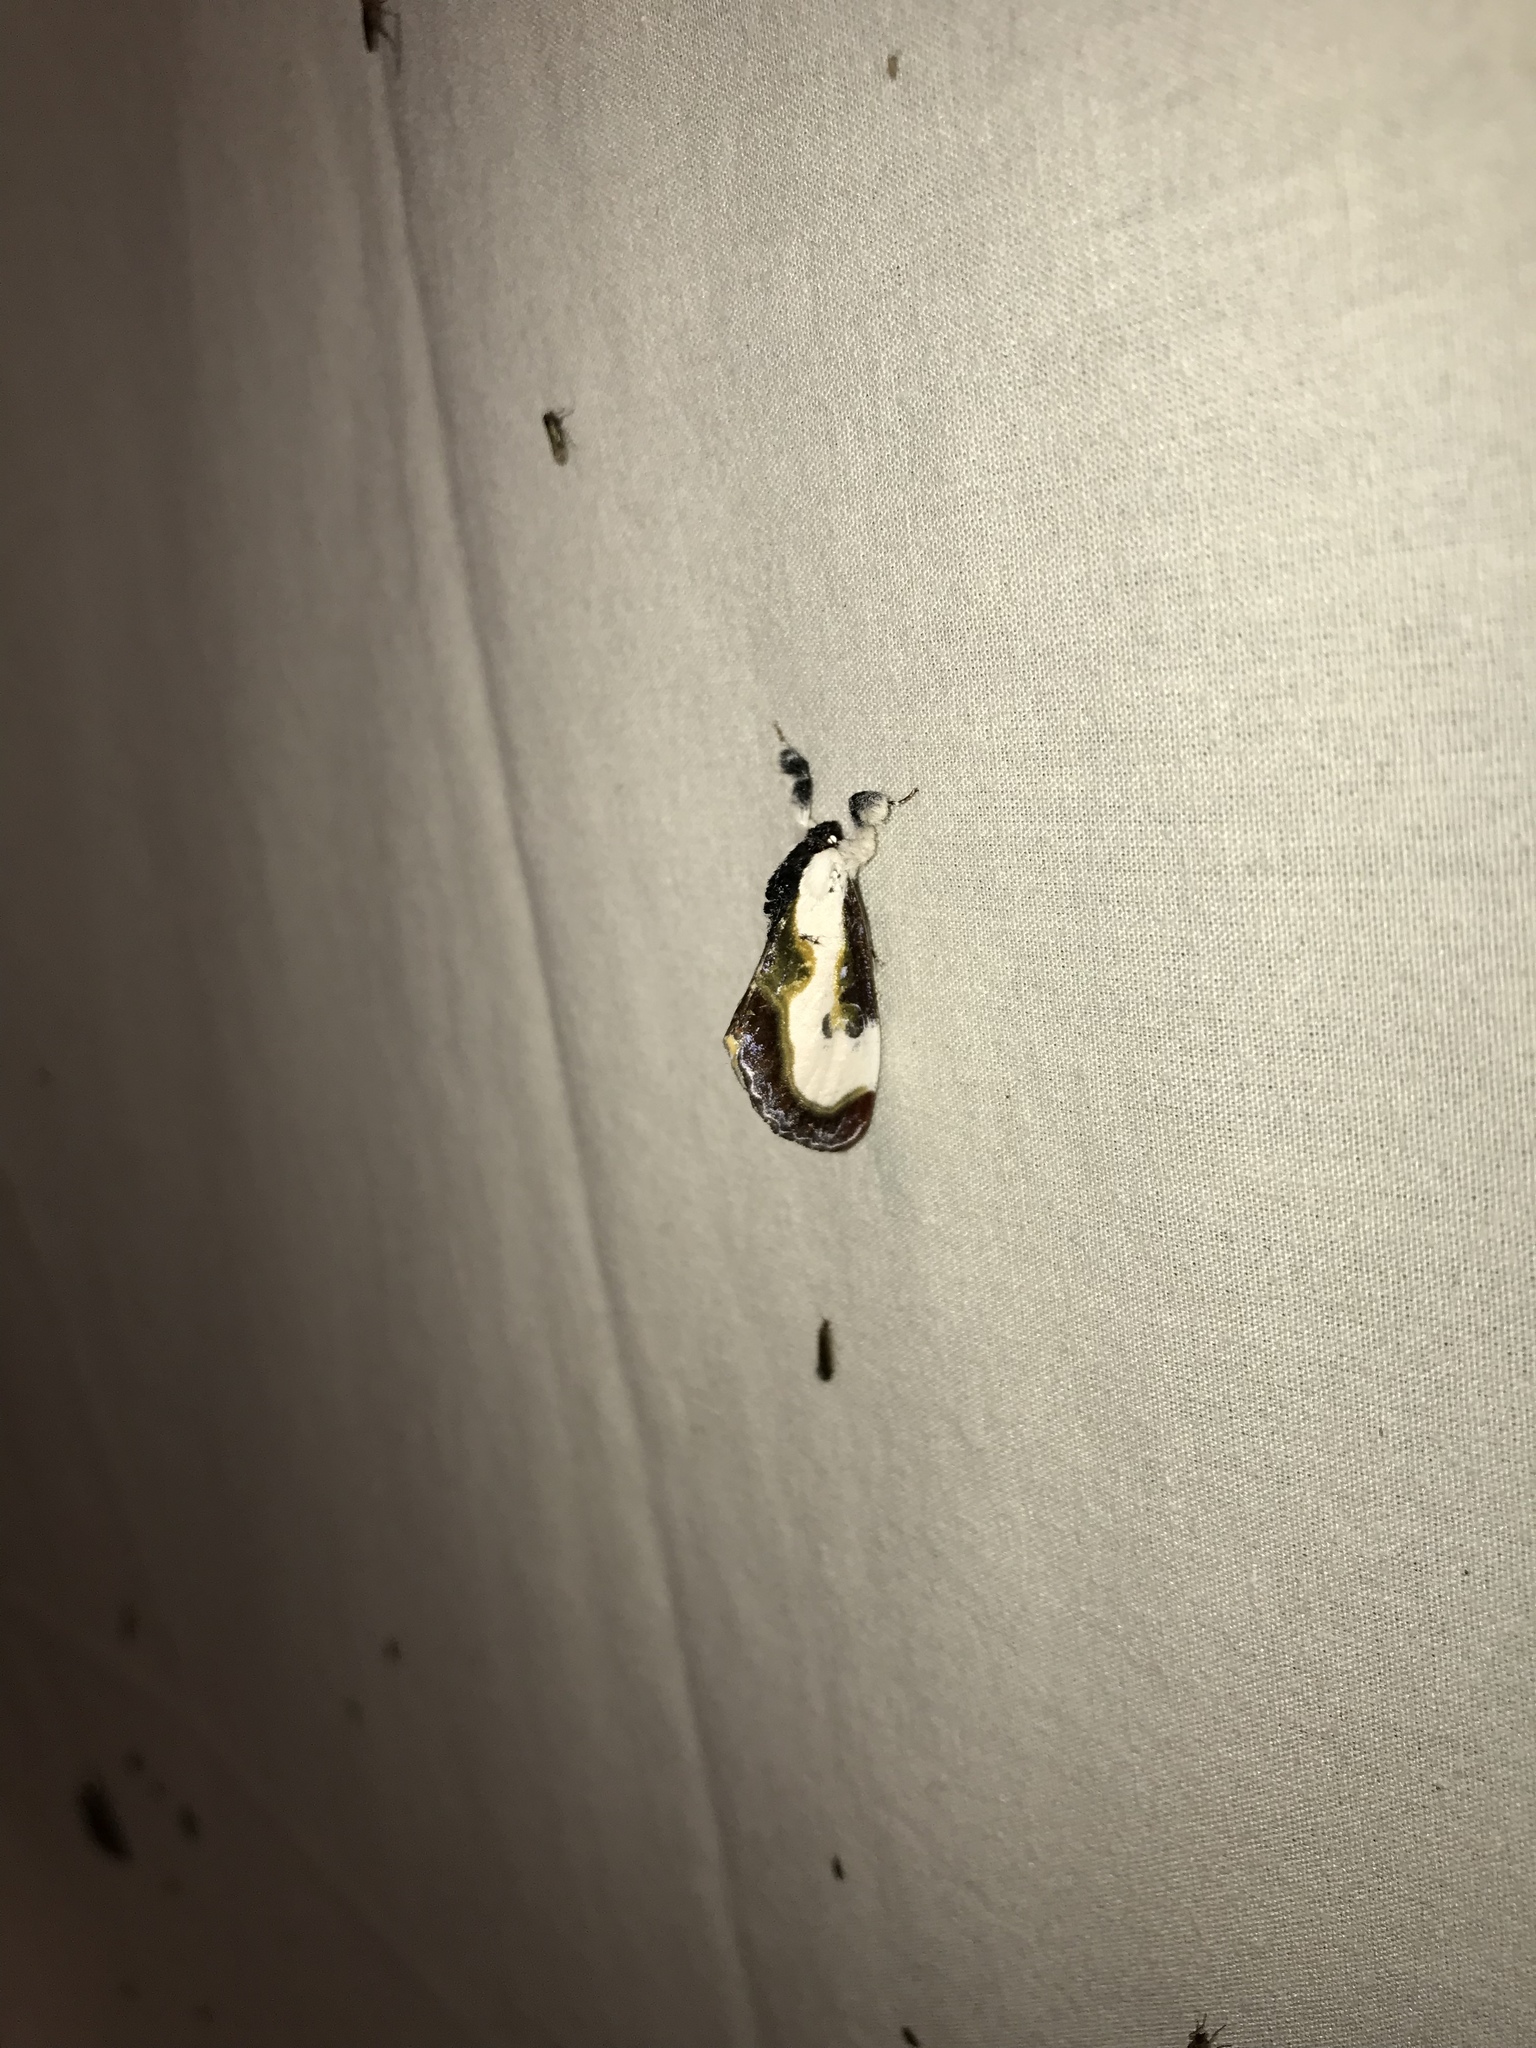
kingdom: Animalia
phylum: Arthropoda
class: Insecta
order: Lepidoptera
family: Noctuidae
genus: Eudryas
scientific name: Eudryas grata
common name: Beautiful wood-nymph
